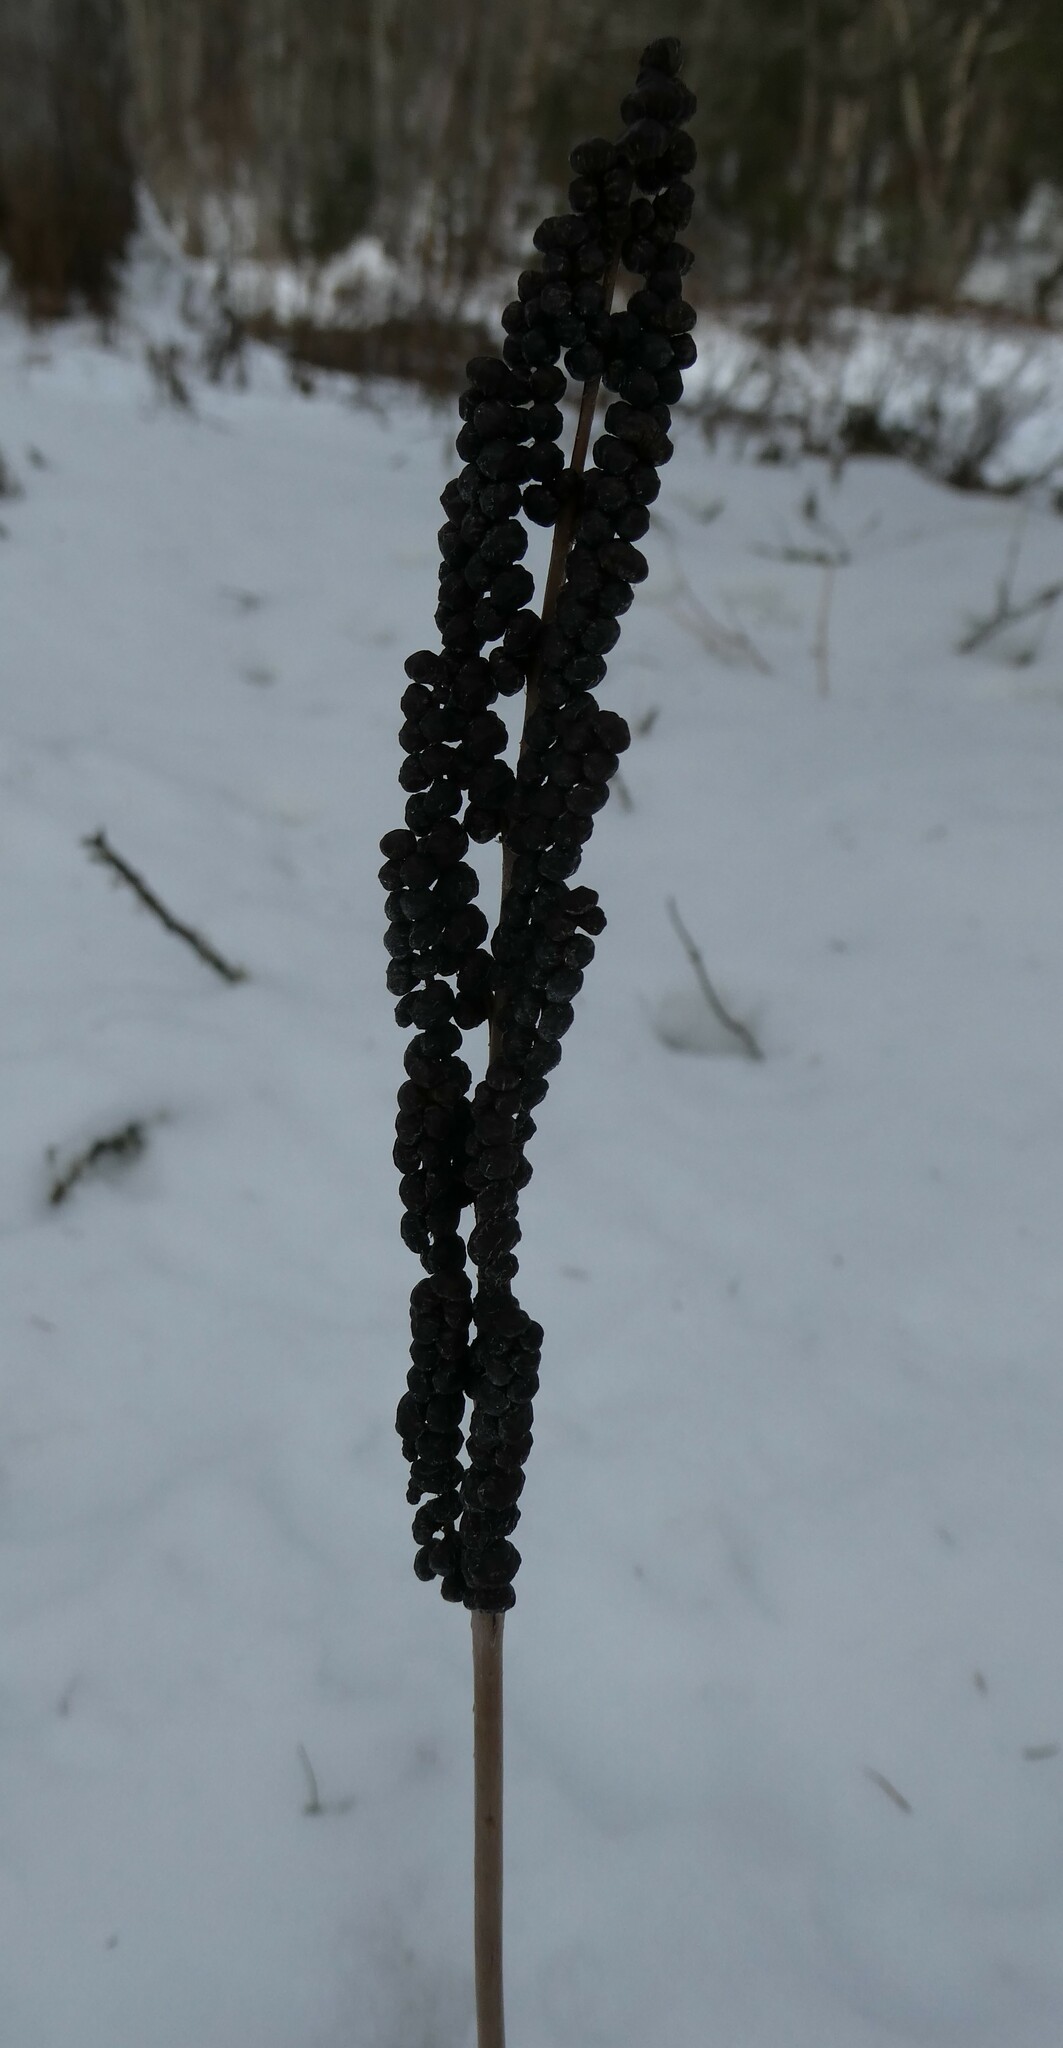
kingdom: Plantae
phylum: Tracheophyta
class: Polypodiopsida
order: Polypodiales
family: Onocleaceae
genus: Onoclea
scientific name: Onoclea sensibilis
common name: Sensitive fern
